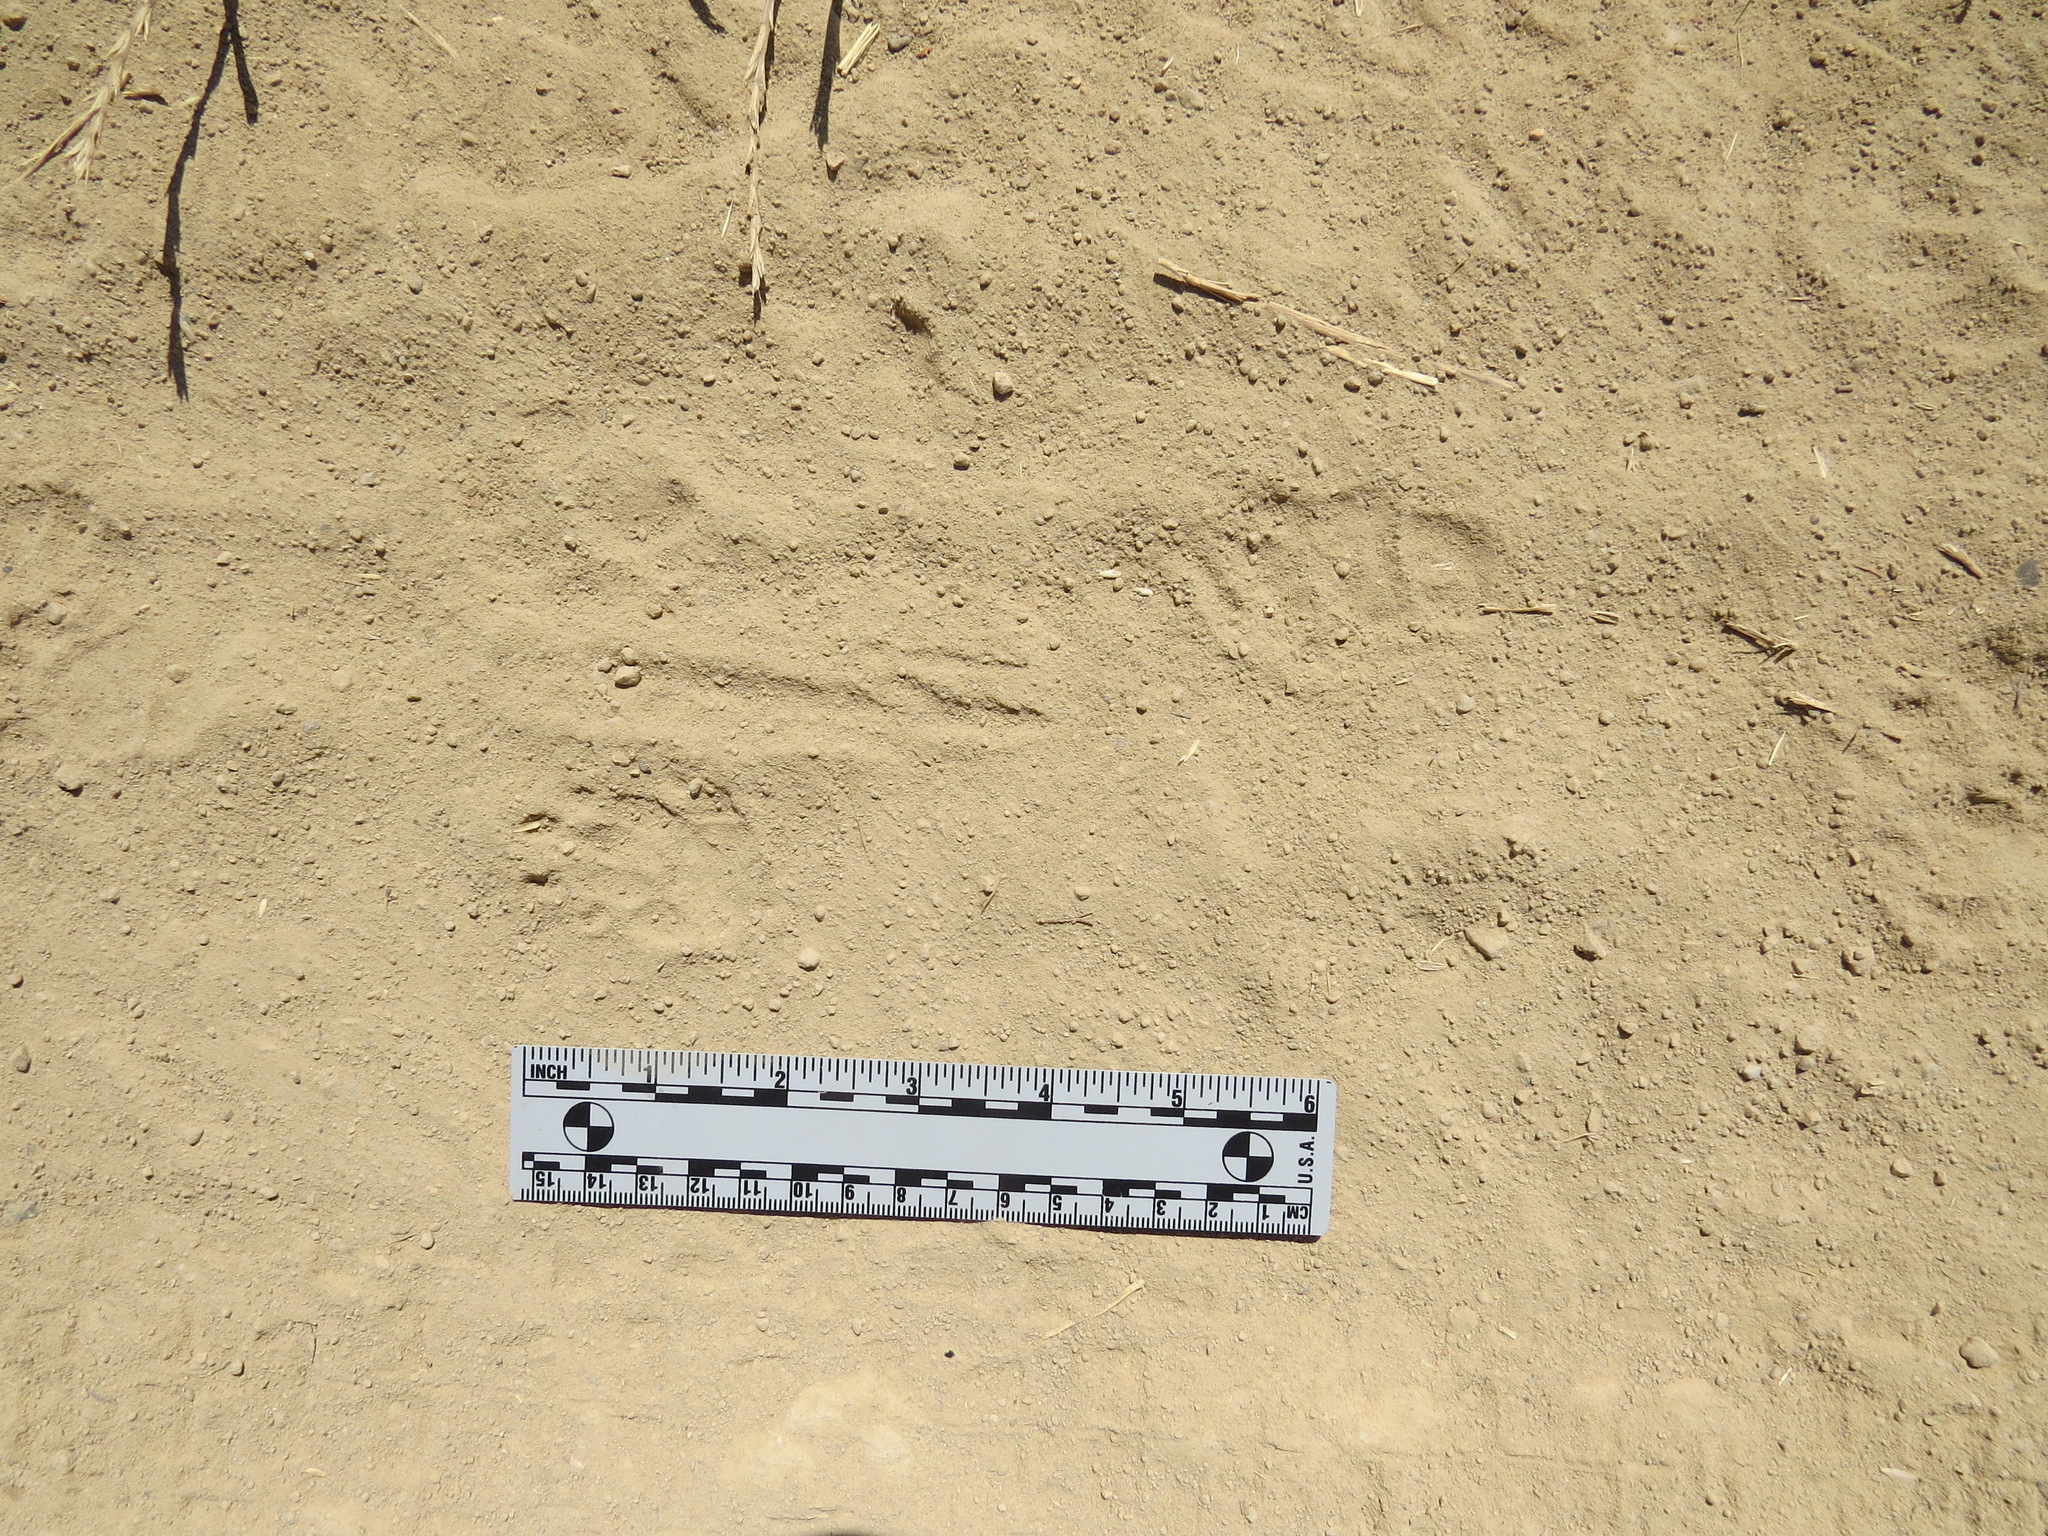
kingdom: Animalia
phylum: Chordata
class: Mammalia
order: Carnivora
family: Mephitidae
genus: Mephitis
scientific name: Mephitis mephitis
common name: Striped skunk
